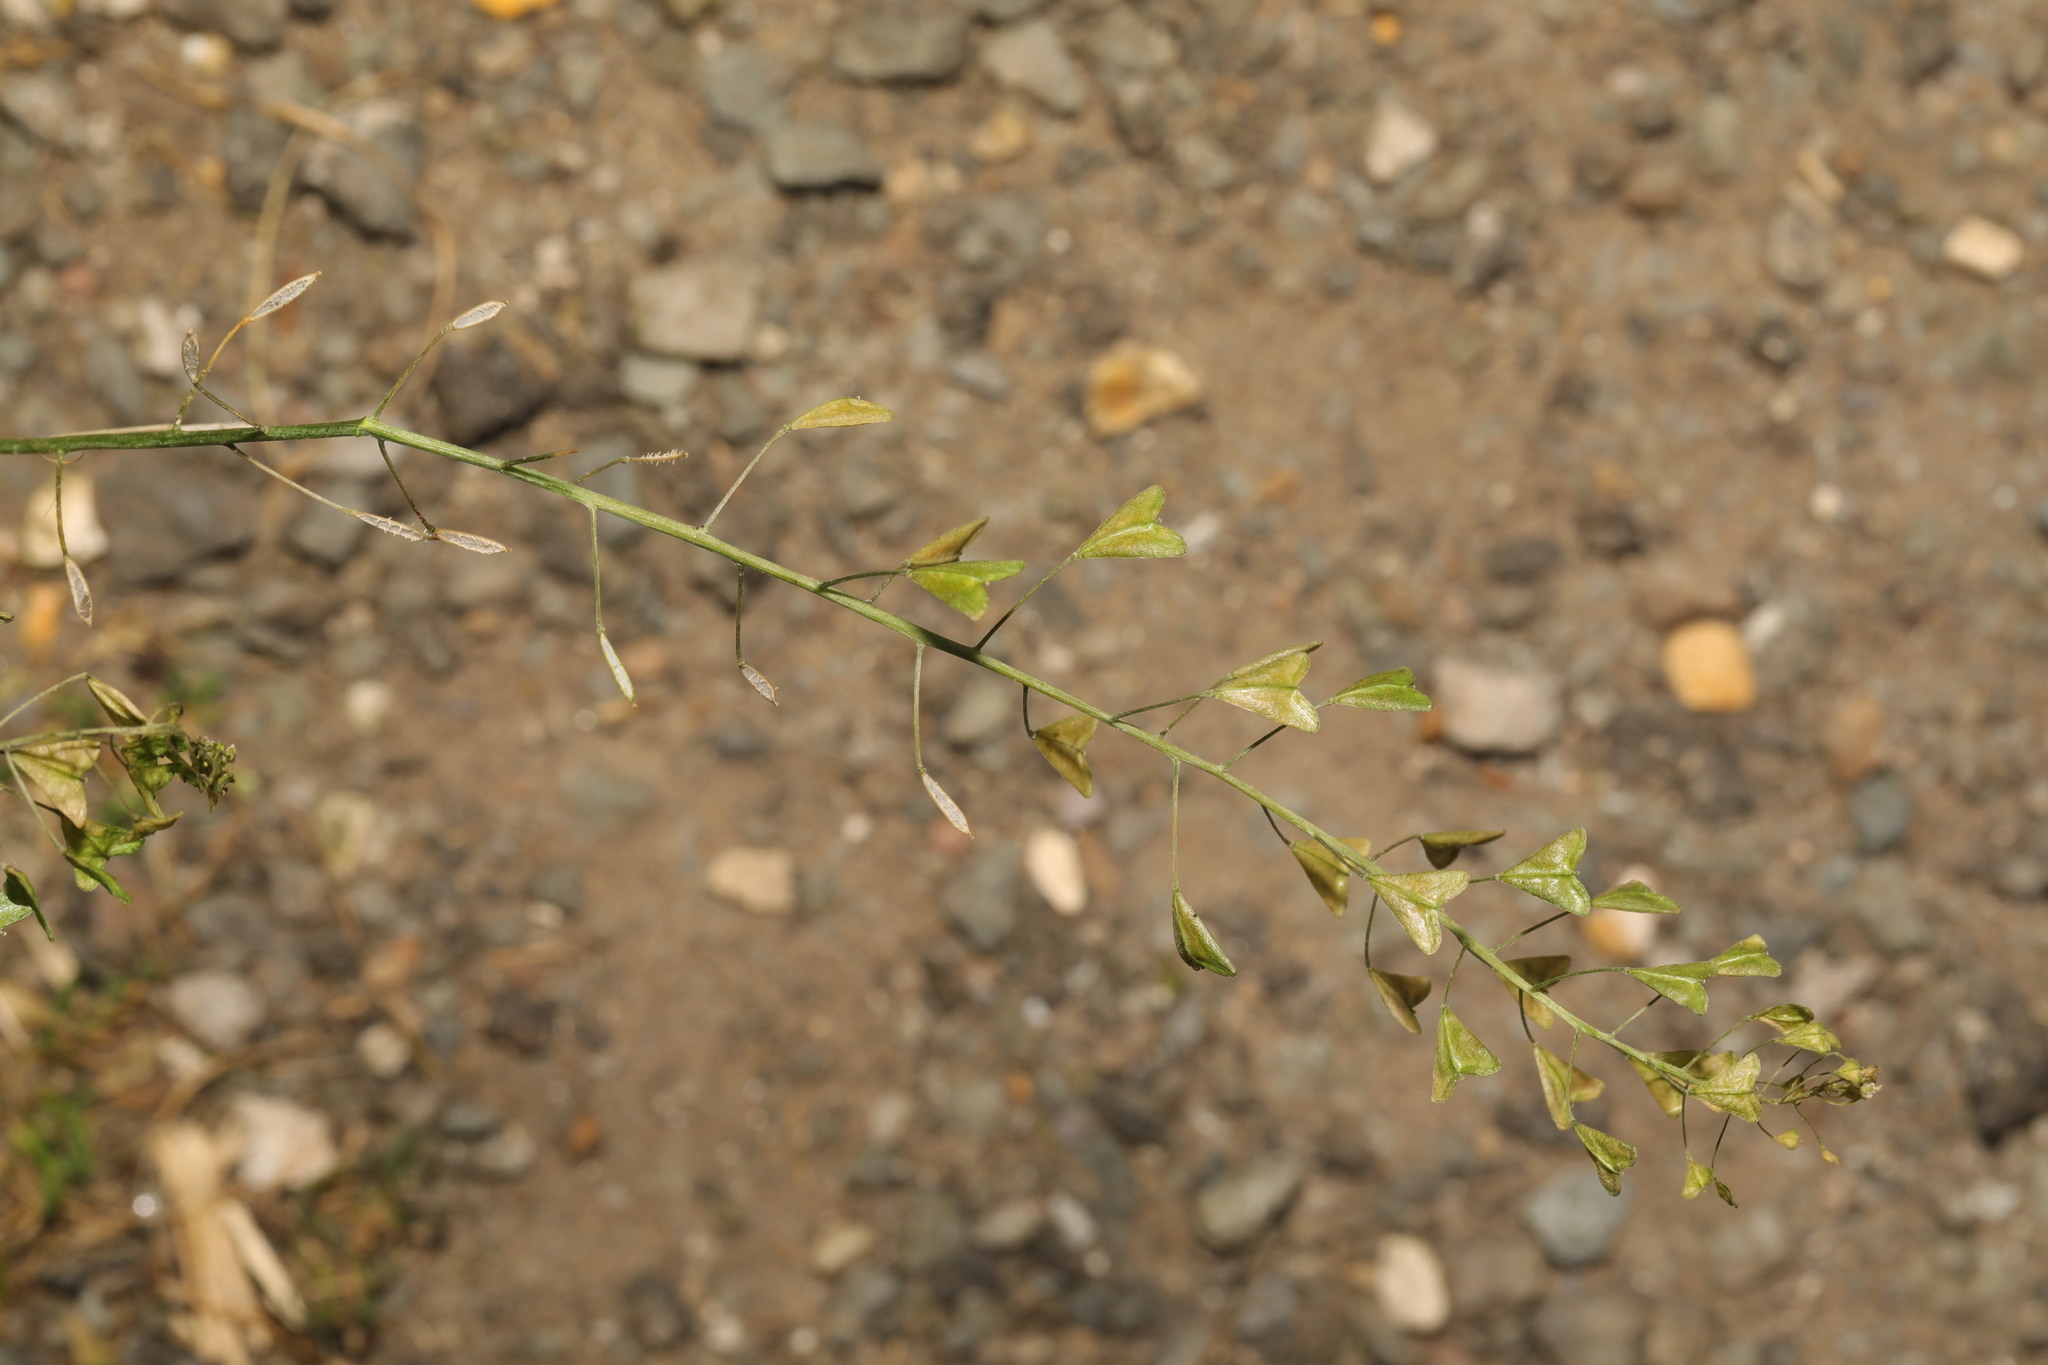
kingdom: Plantae
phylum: Tracheophyta
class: Magnoliopsida
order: Brassicales
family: Brassicaceae
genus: Capsella
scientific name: Capsella bursa-pastoris
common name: Shepherd's purse
